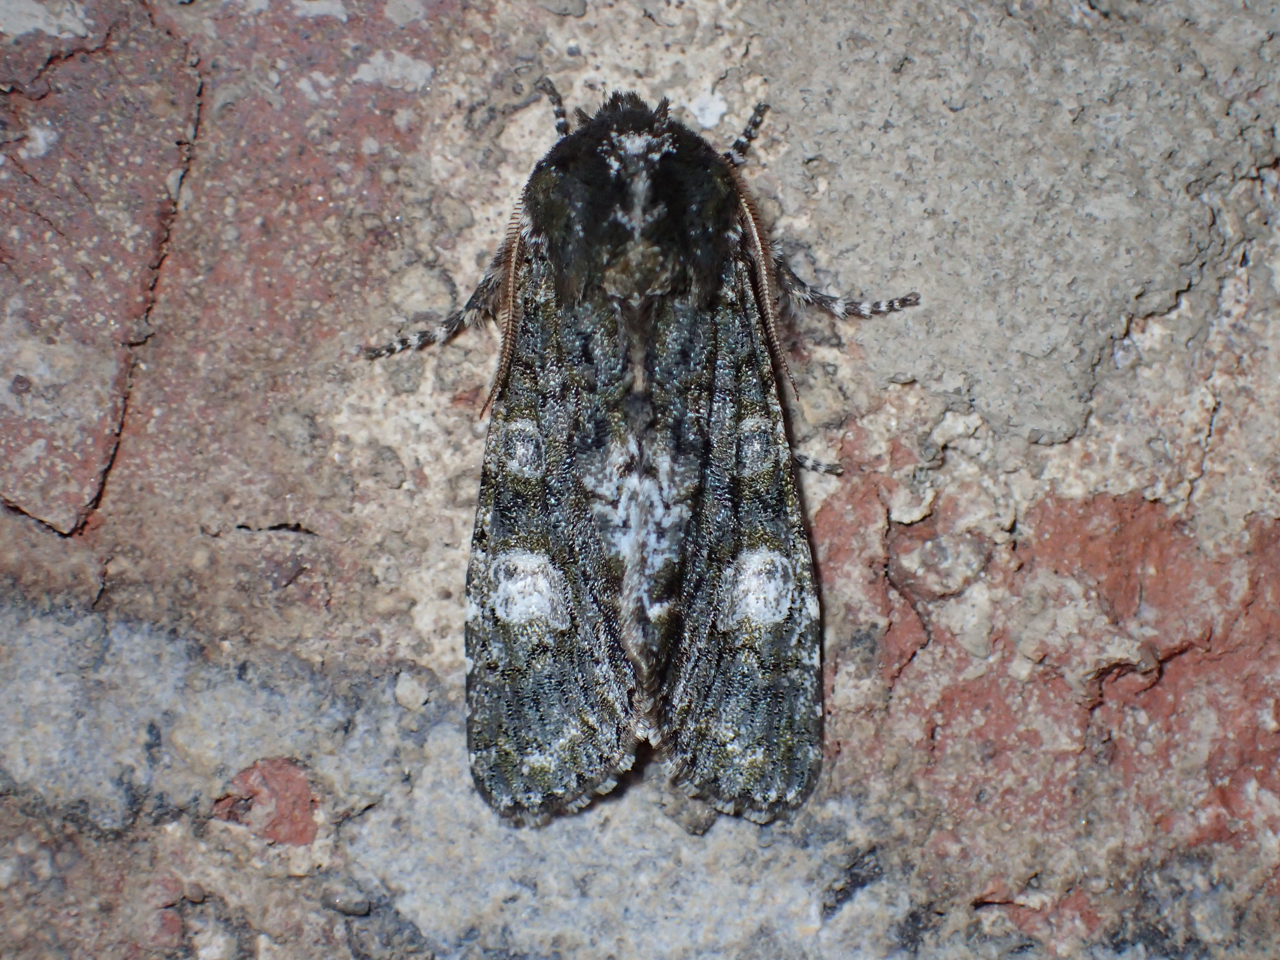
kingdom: Animalia
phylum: Arthropoda
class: Insecta
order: Lepidoptera
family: Noctuidae
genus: Psaphida
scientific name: Psaphida grotei
